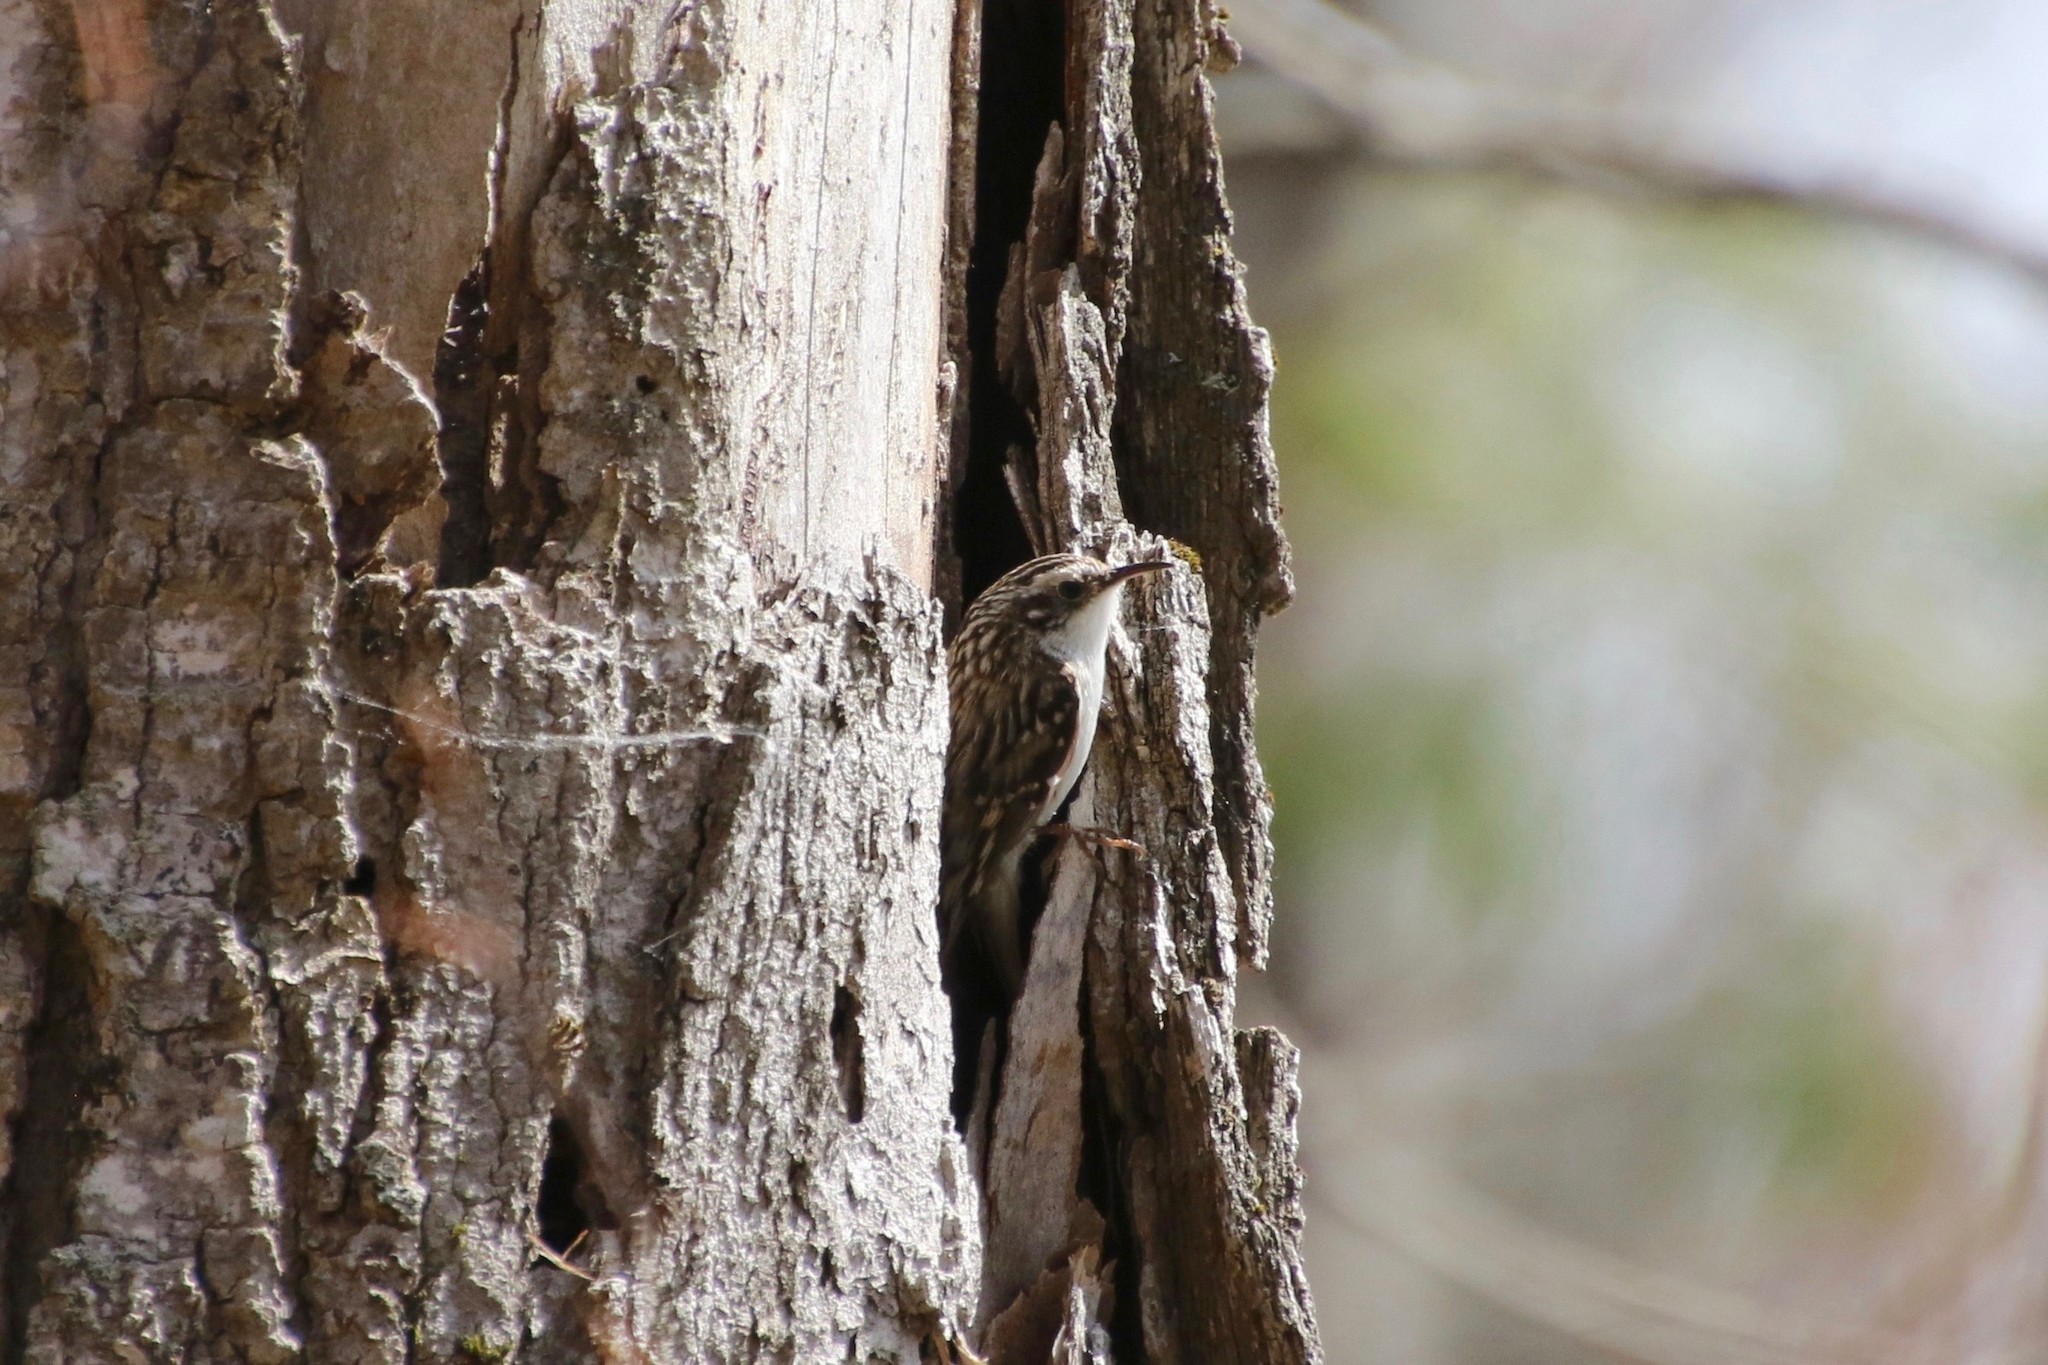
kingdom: Animalia
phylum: Chordata
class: Aves
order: Passeriformes
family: Certhiidae
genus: Certhia
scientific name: Certhia americana
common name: Brown creeper
